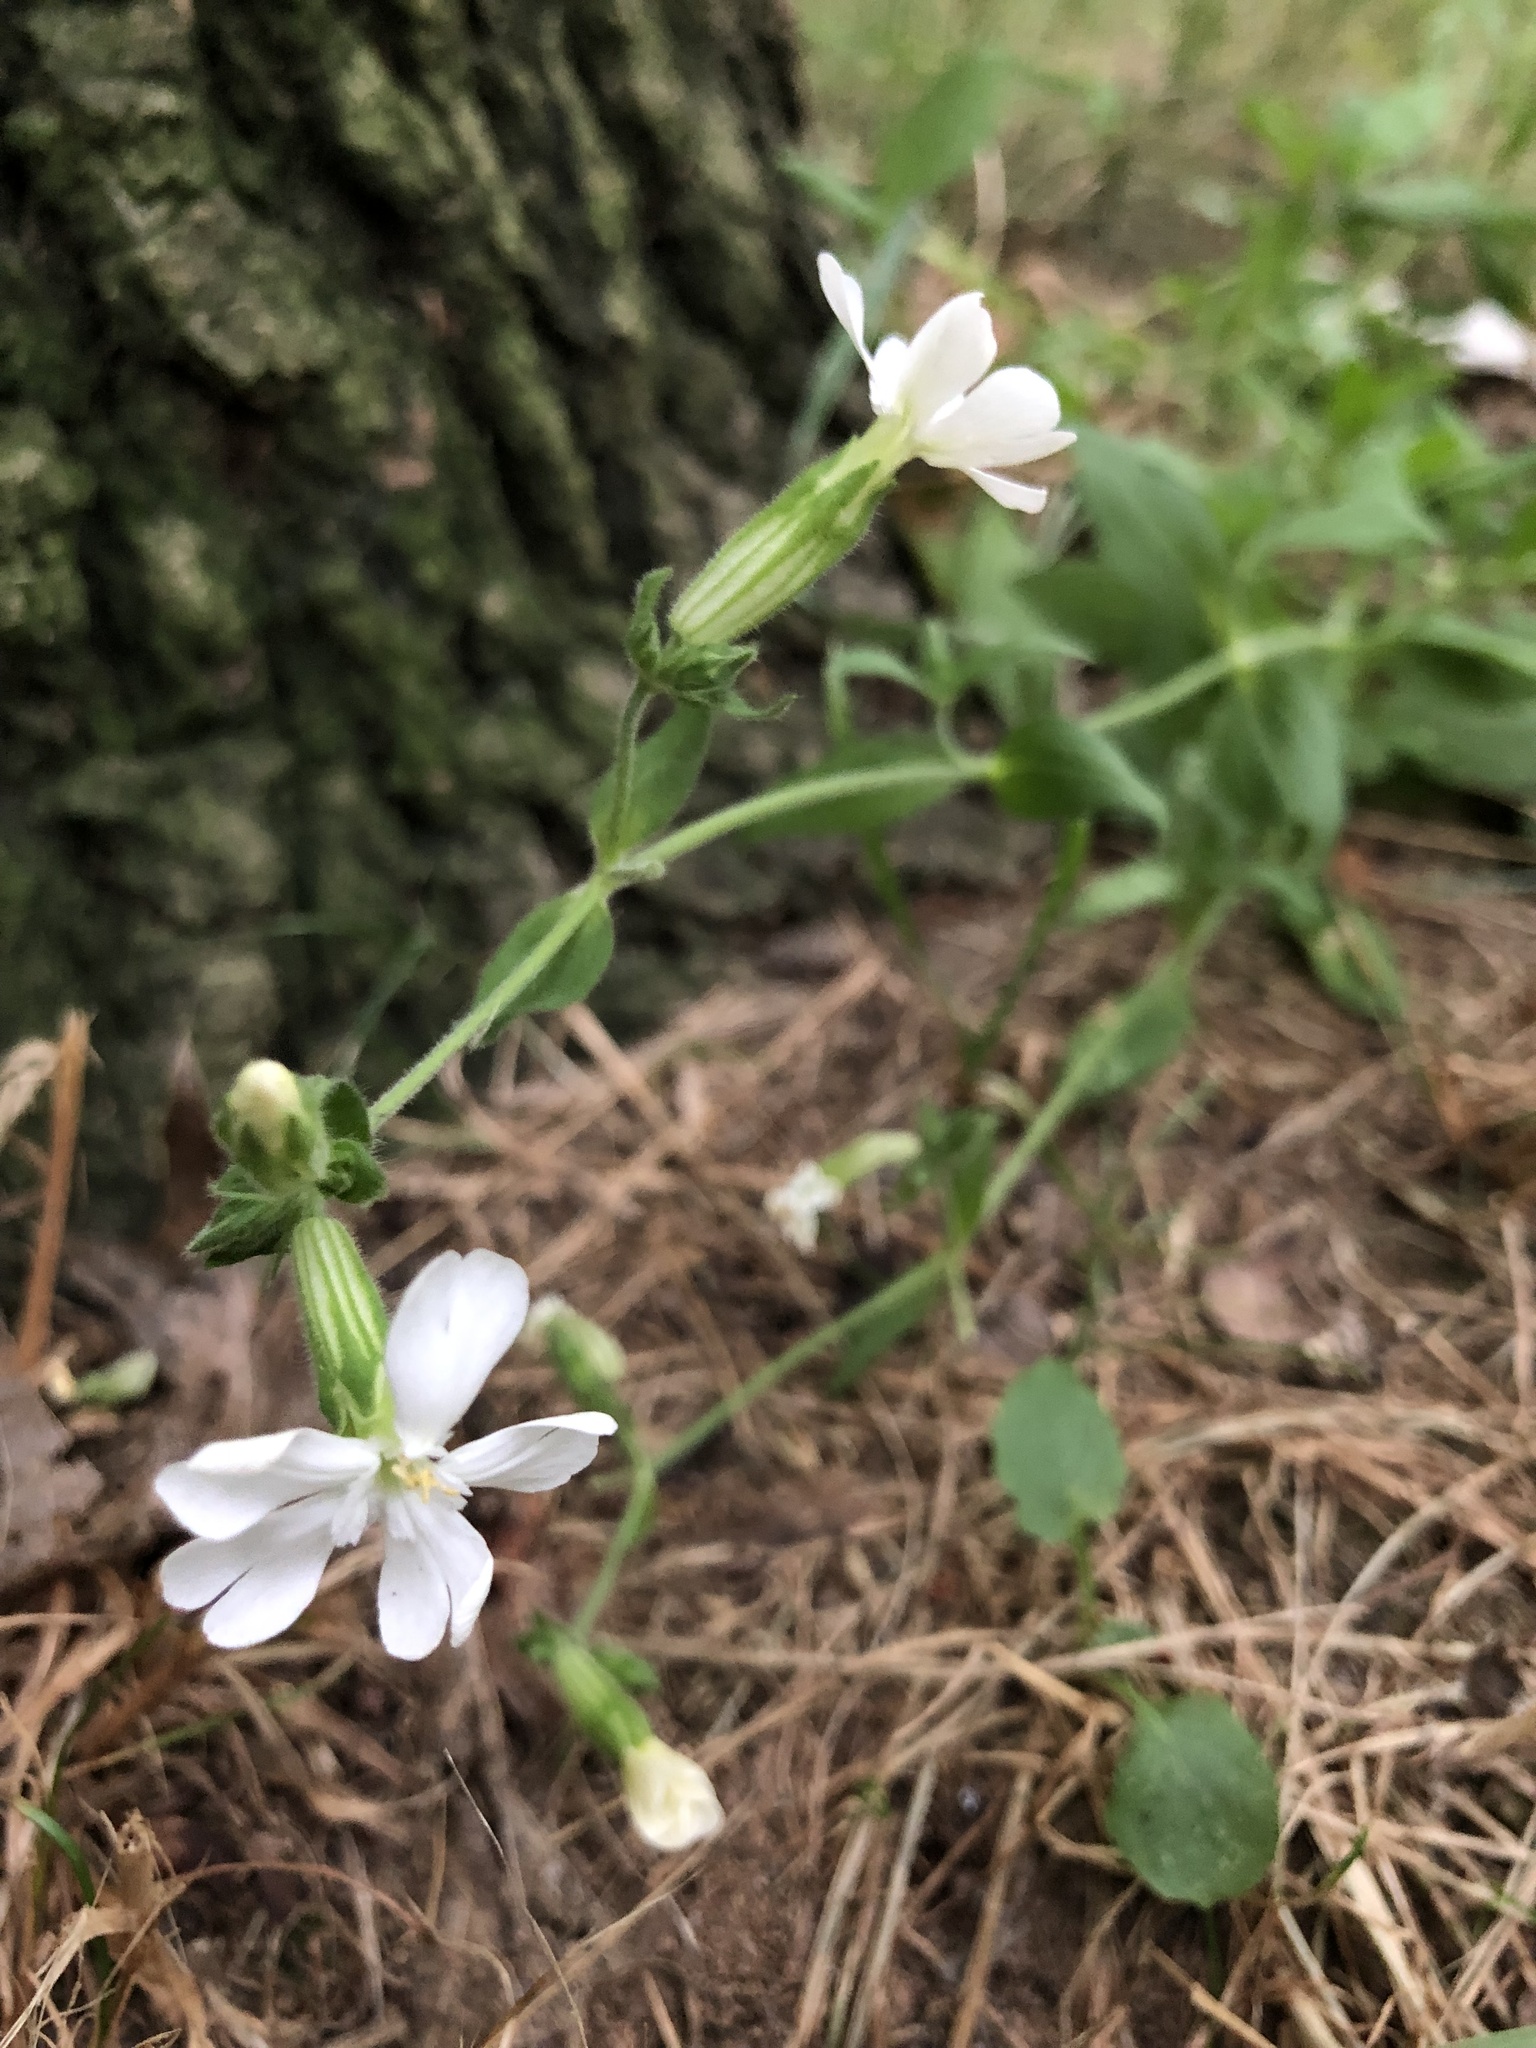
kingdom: Plantae
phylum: Tracheophyta
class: Magnoliopsida
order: Caryophyllales
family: Caryophyllaceae
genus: Silene
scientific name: Silene latifolia
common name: White campion
